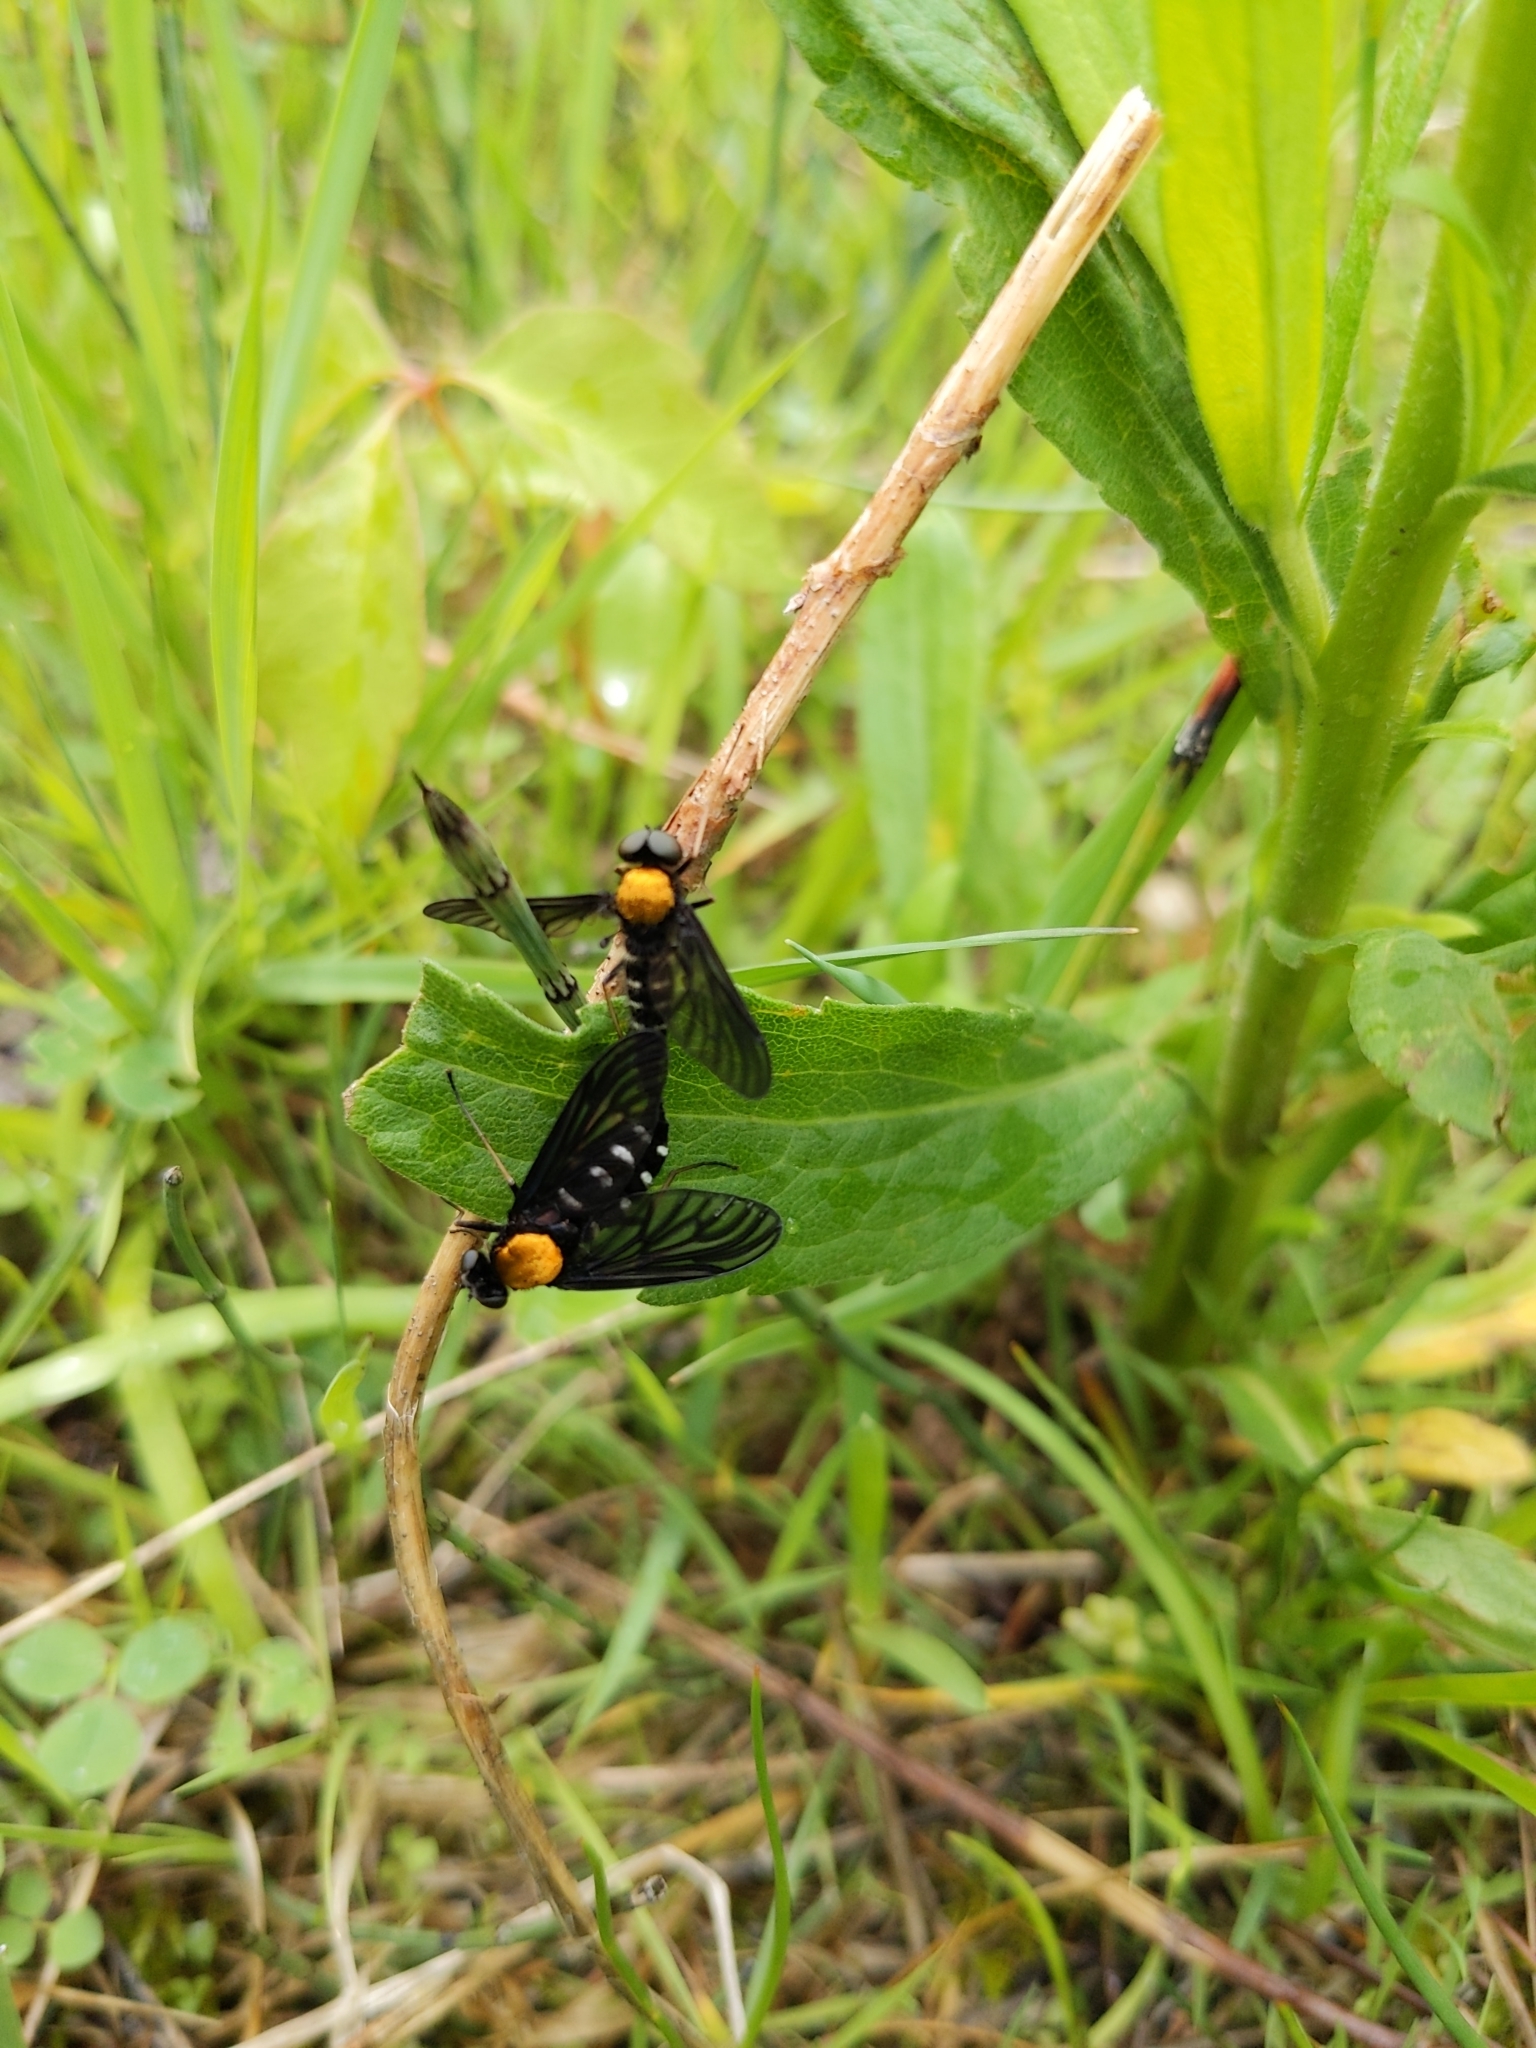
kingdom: Animalia
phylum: Arthropoda
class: Insecta
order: Diptera
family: Rhagionidae
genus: Chrysopilus
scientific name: Chrysopilus thoracicus
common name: Golden-backed snipe fly
